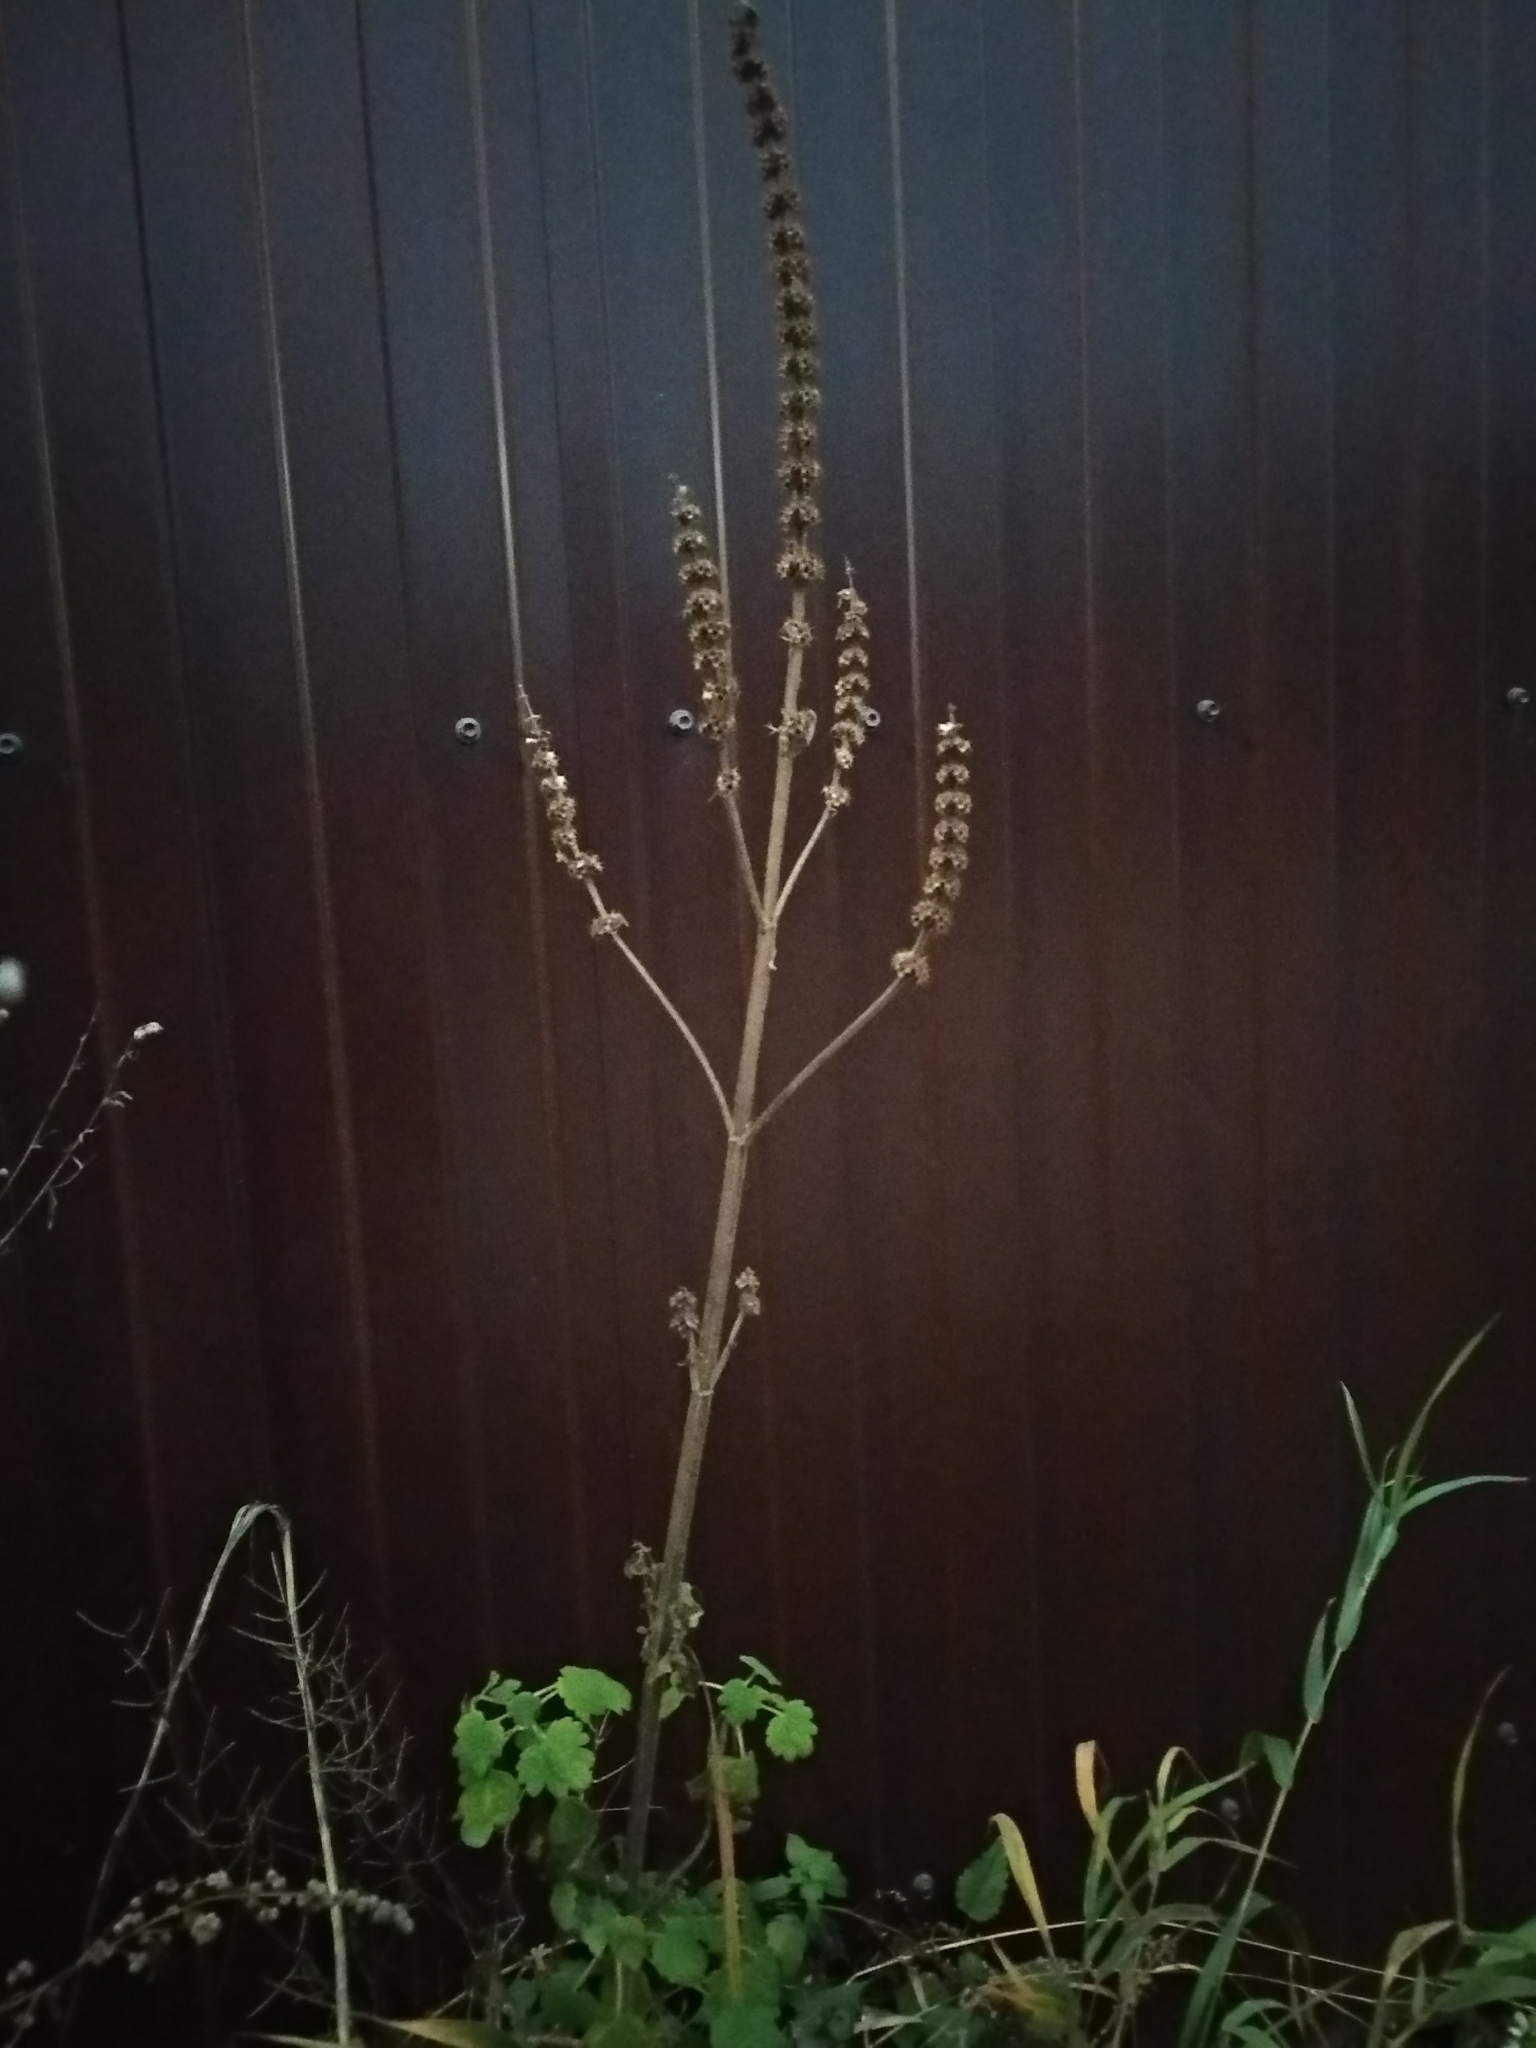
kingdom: Plantae
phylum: Tracheophyta
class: Magnoliopsida
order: Lamiales
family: Lamiaceae
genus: Leonurus
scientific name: Leonurus quinquelobatus
